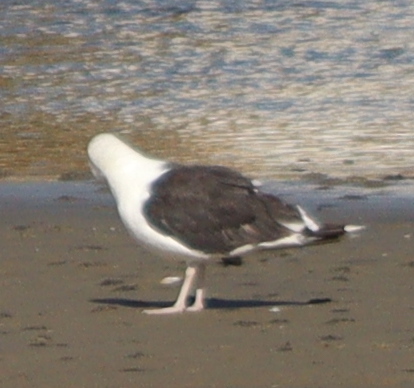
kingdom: Animalia
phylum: Chordata
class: Aves
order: Charadriiformes
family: Laridae
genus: Larus
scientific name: Larus marinus
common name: Great black-backed gull
